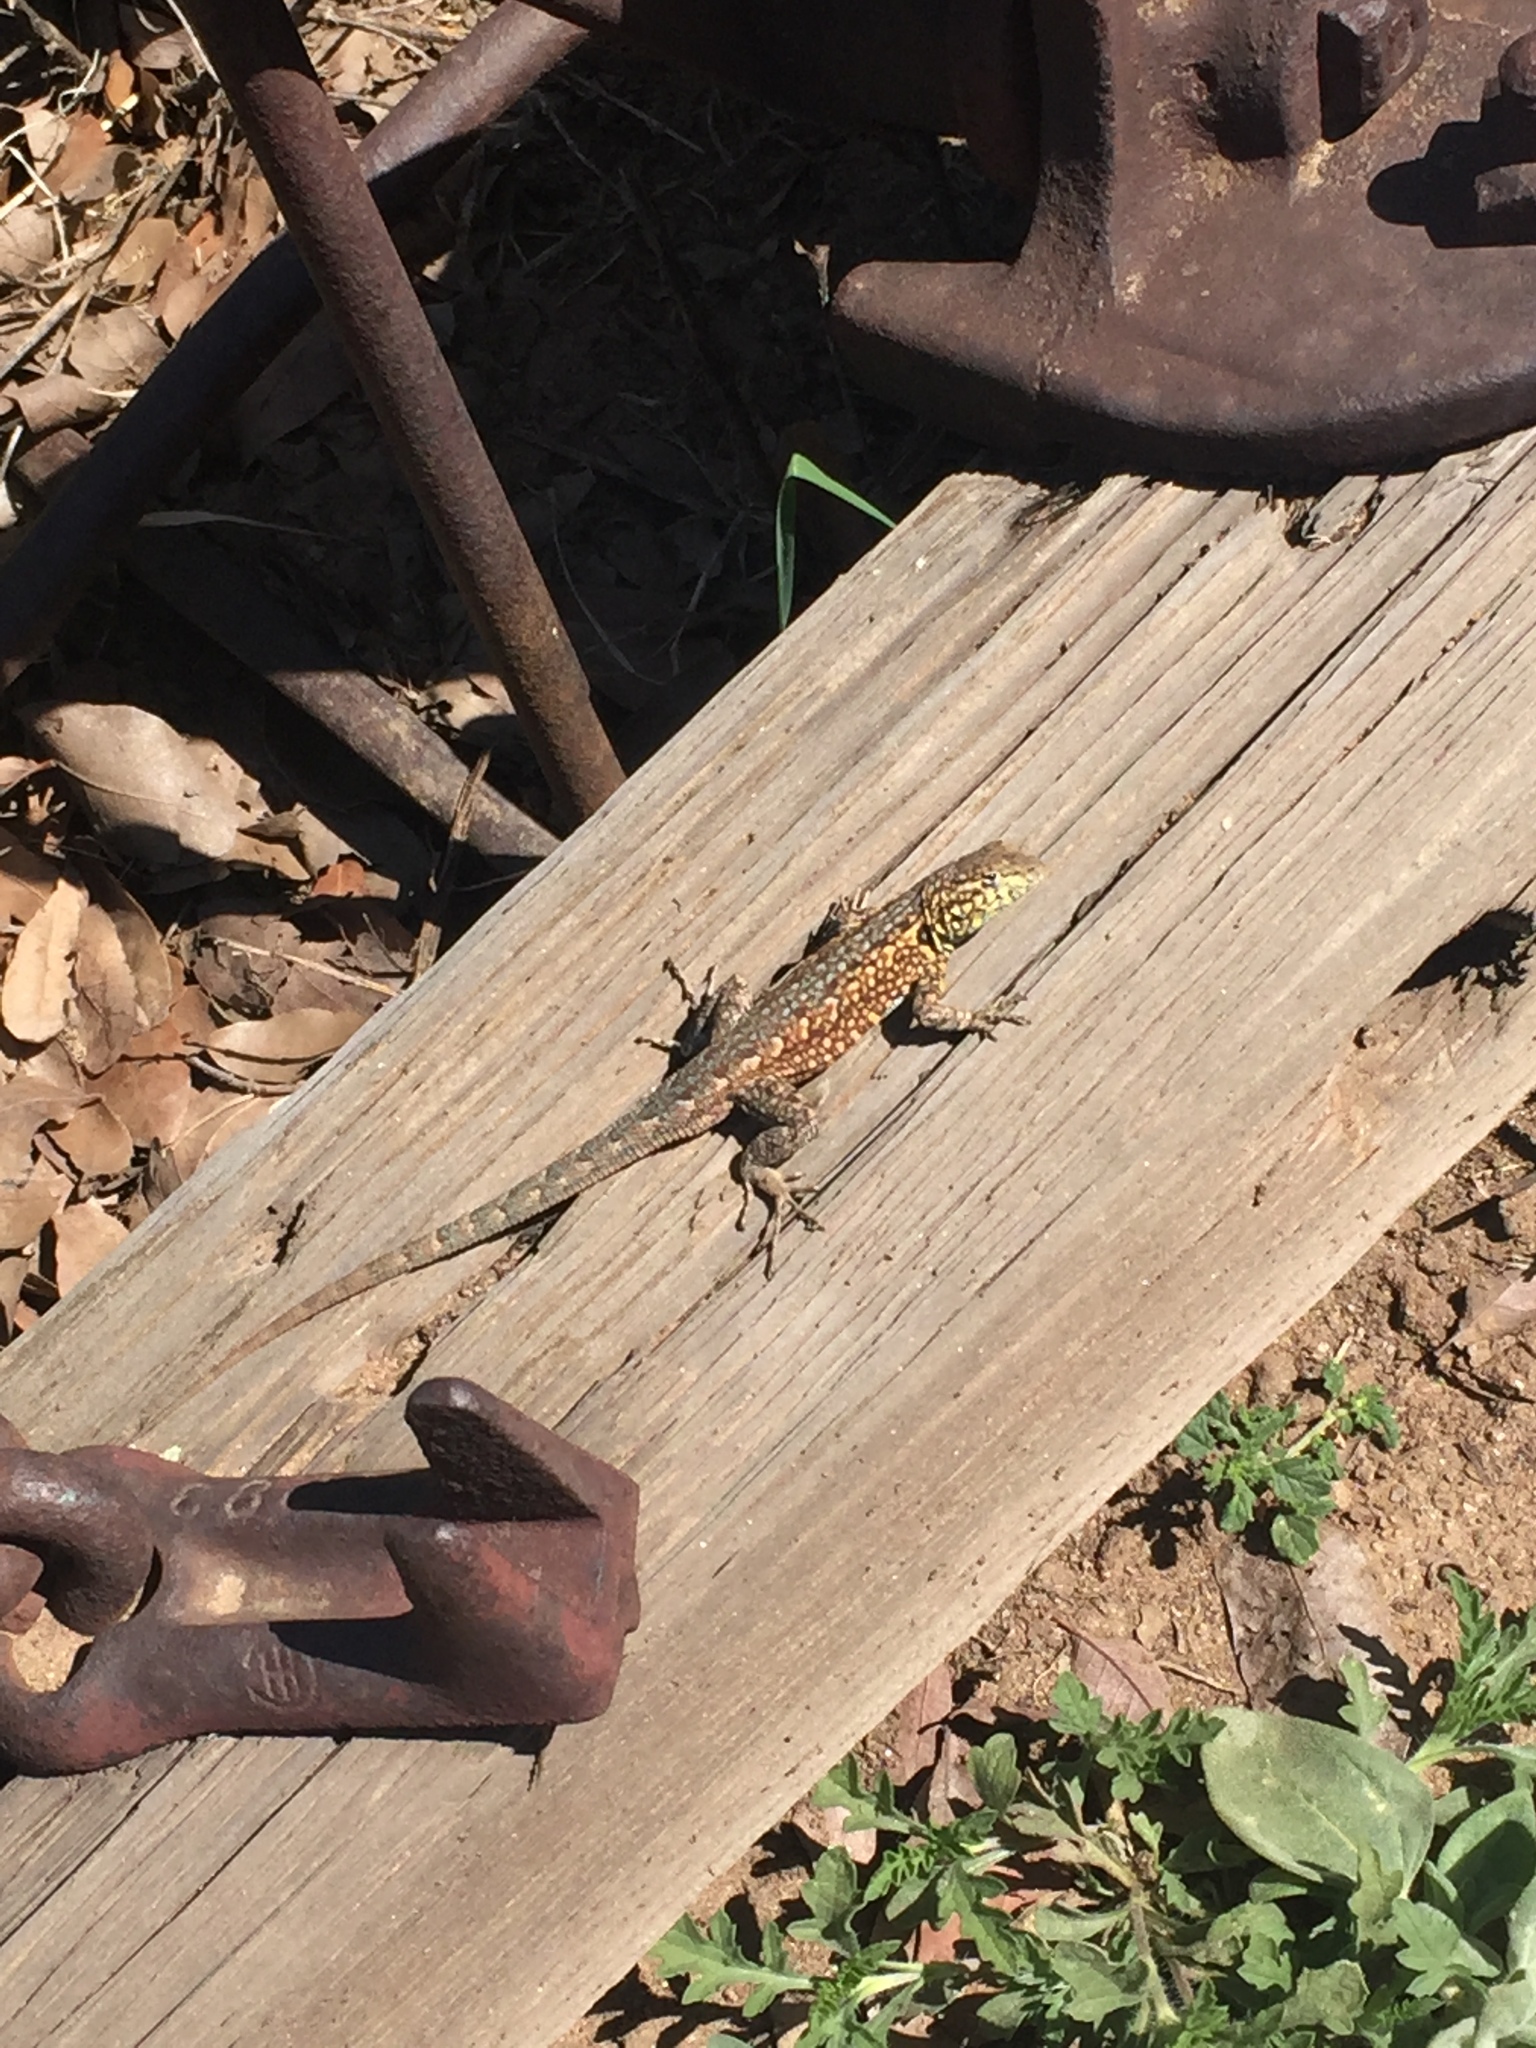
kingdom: Animalia
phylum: Chordata
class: Squamata
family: Phrynosomatidae
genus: Uta
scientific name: Uta stansburiana
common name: Side-blotched lizard
